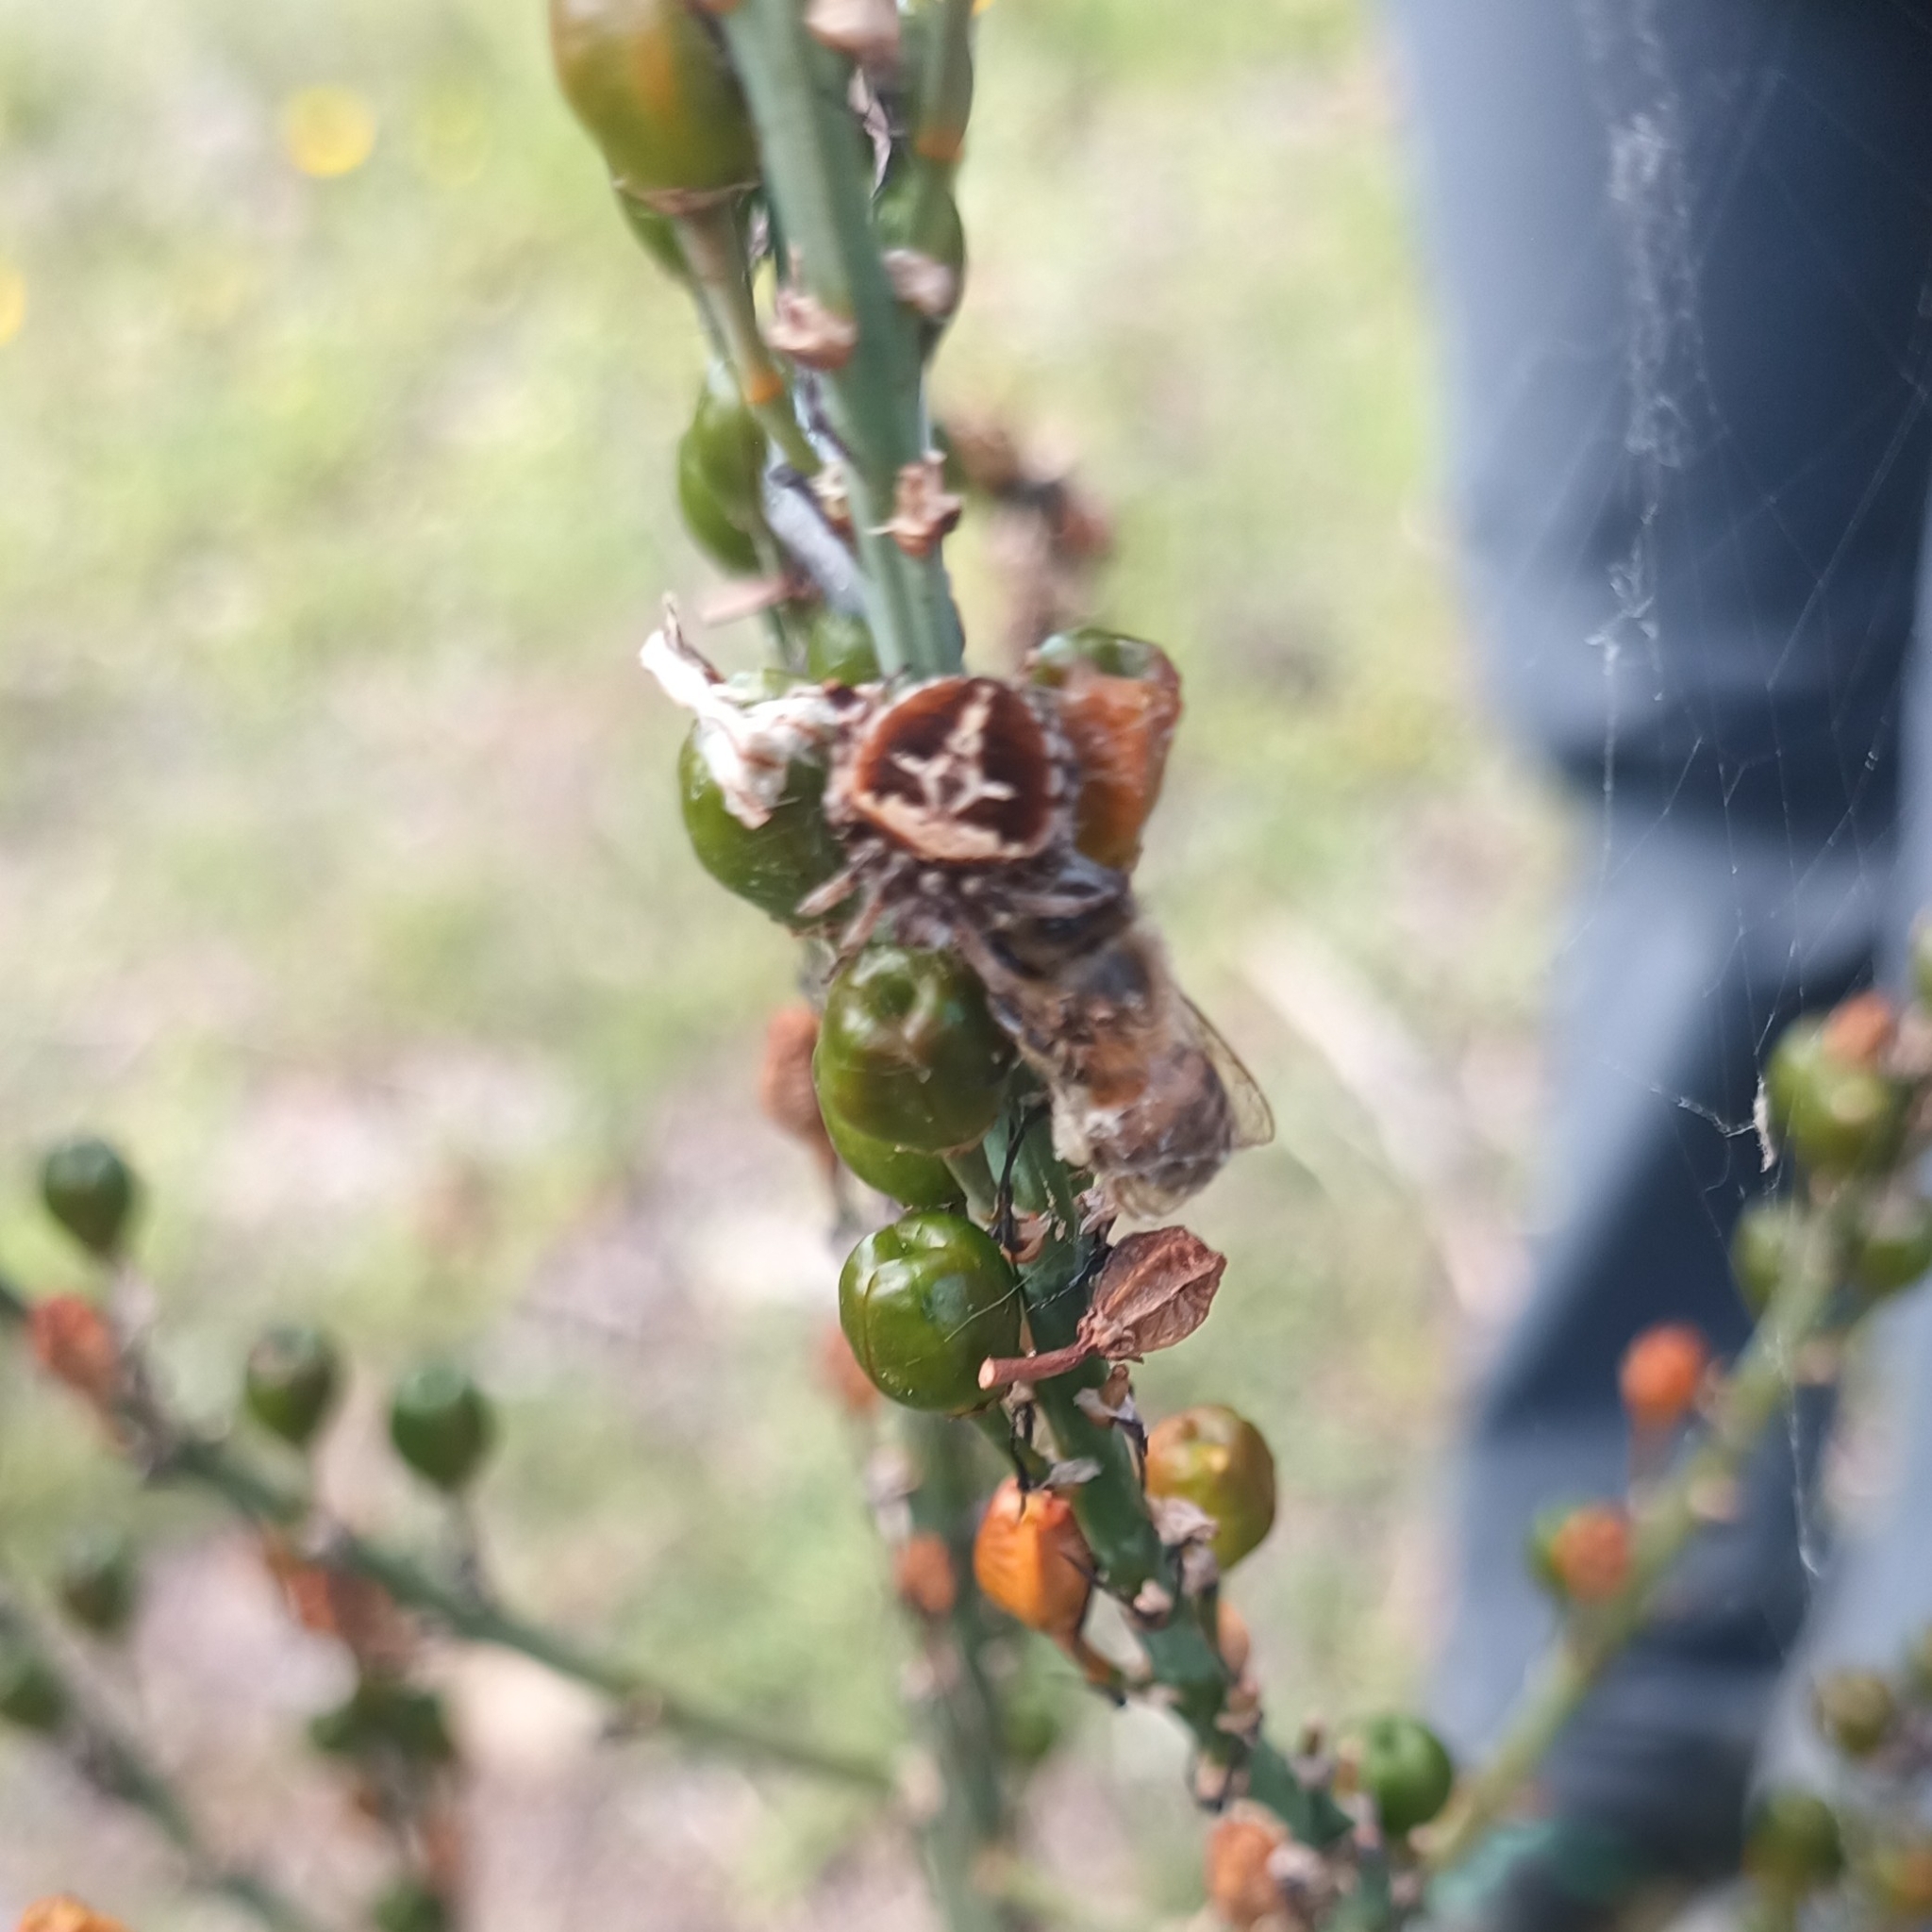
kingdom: Animalia
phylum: Arthropoda
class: Arachnida
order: Araneae
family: Araneidae
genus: Agalenatea
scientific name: Agalenatea redii
